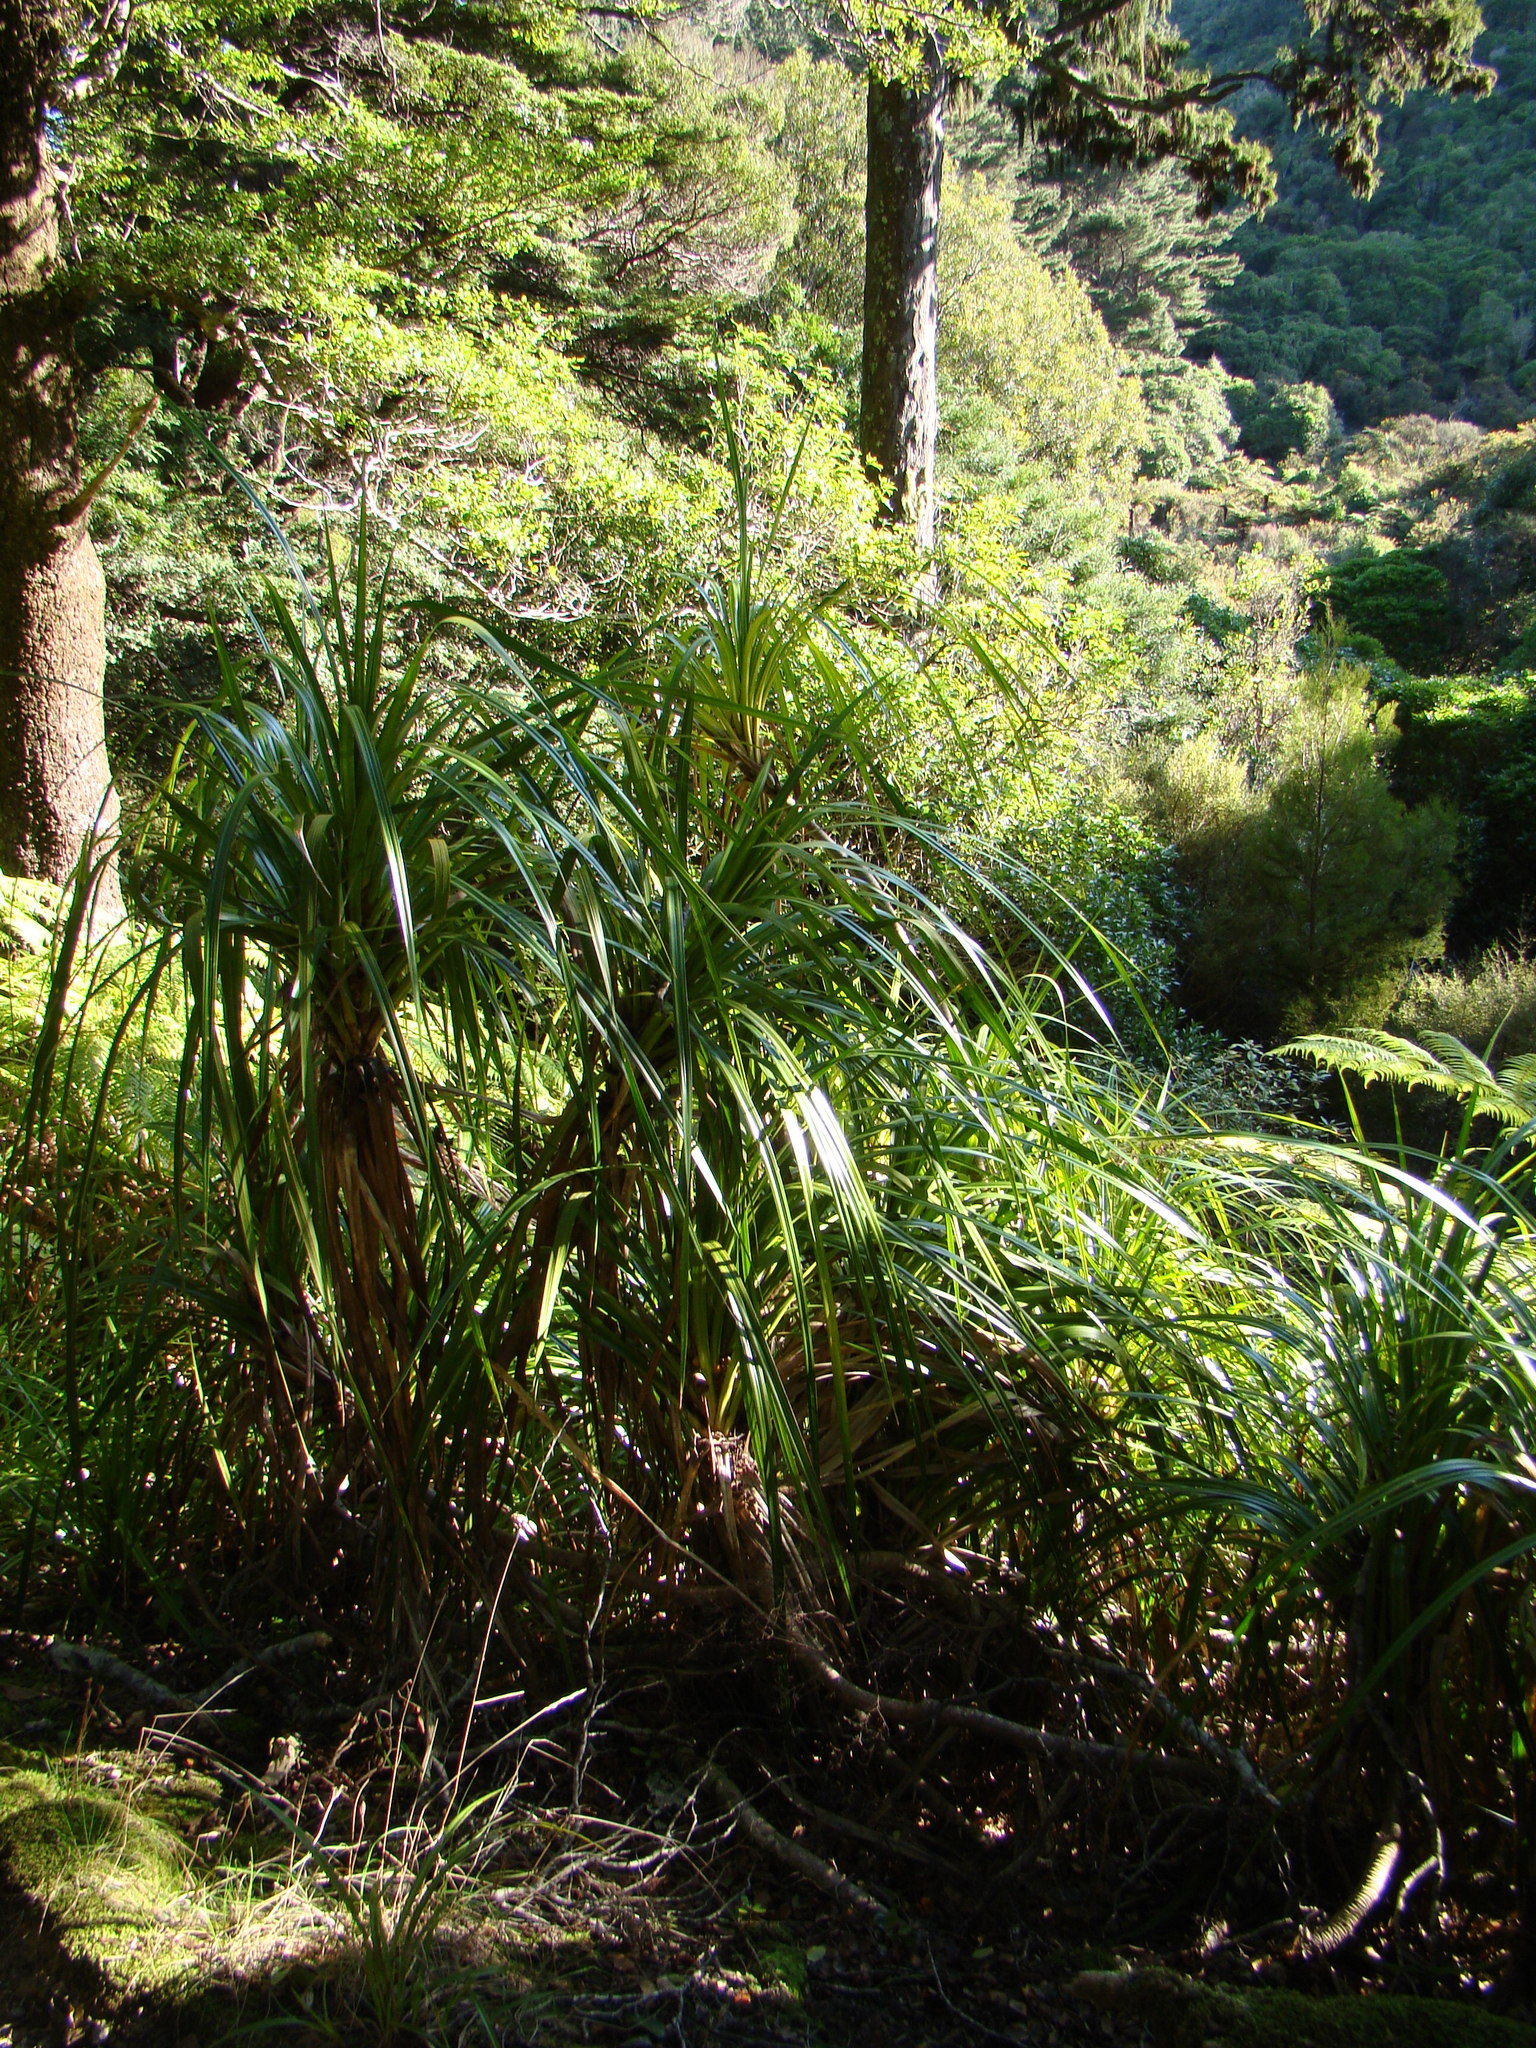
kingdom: Plantae
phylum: Tracheophyta
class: Liliopsida
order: Pandanales
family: Pandanaceae
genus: Freycinetia
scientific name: Freycinetia banksii
